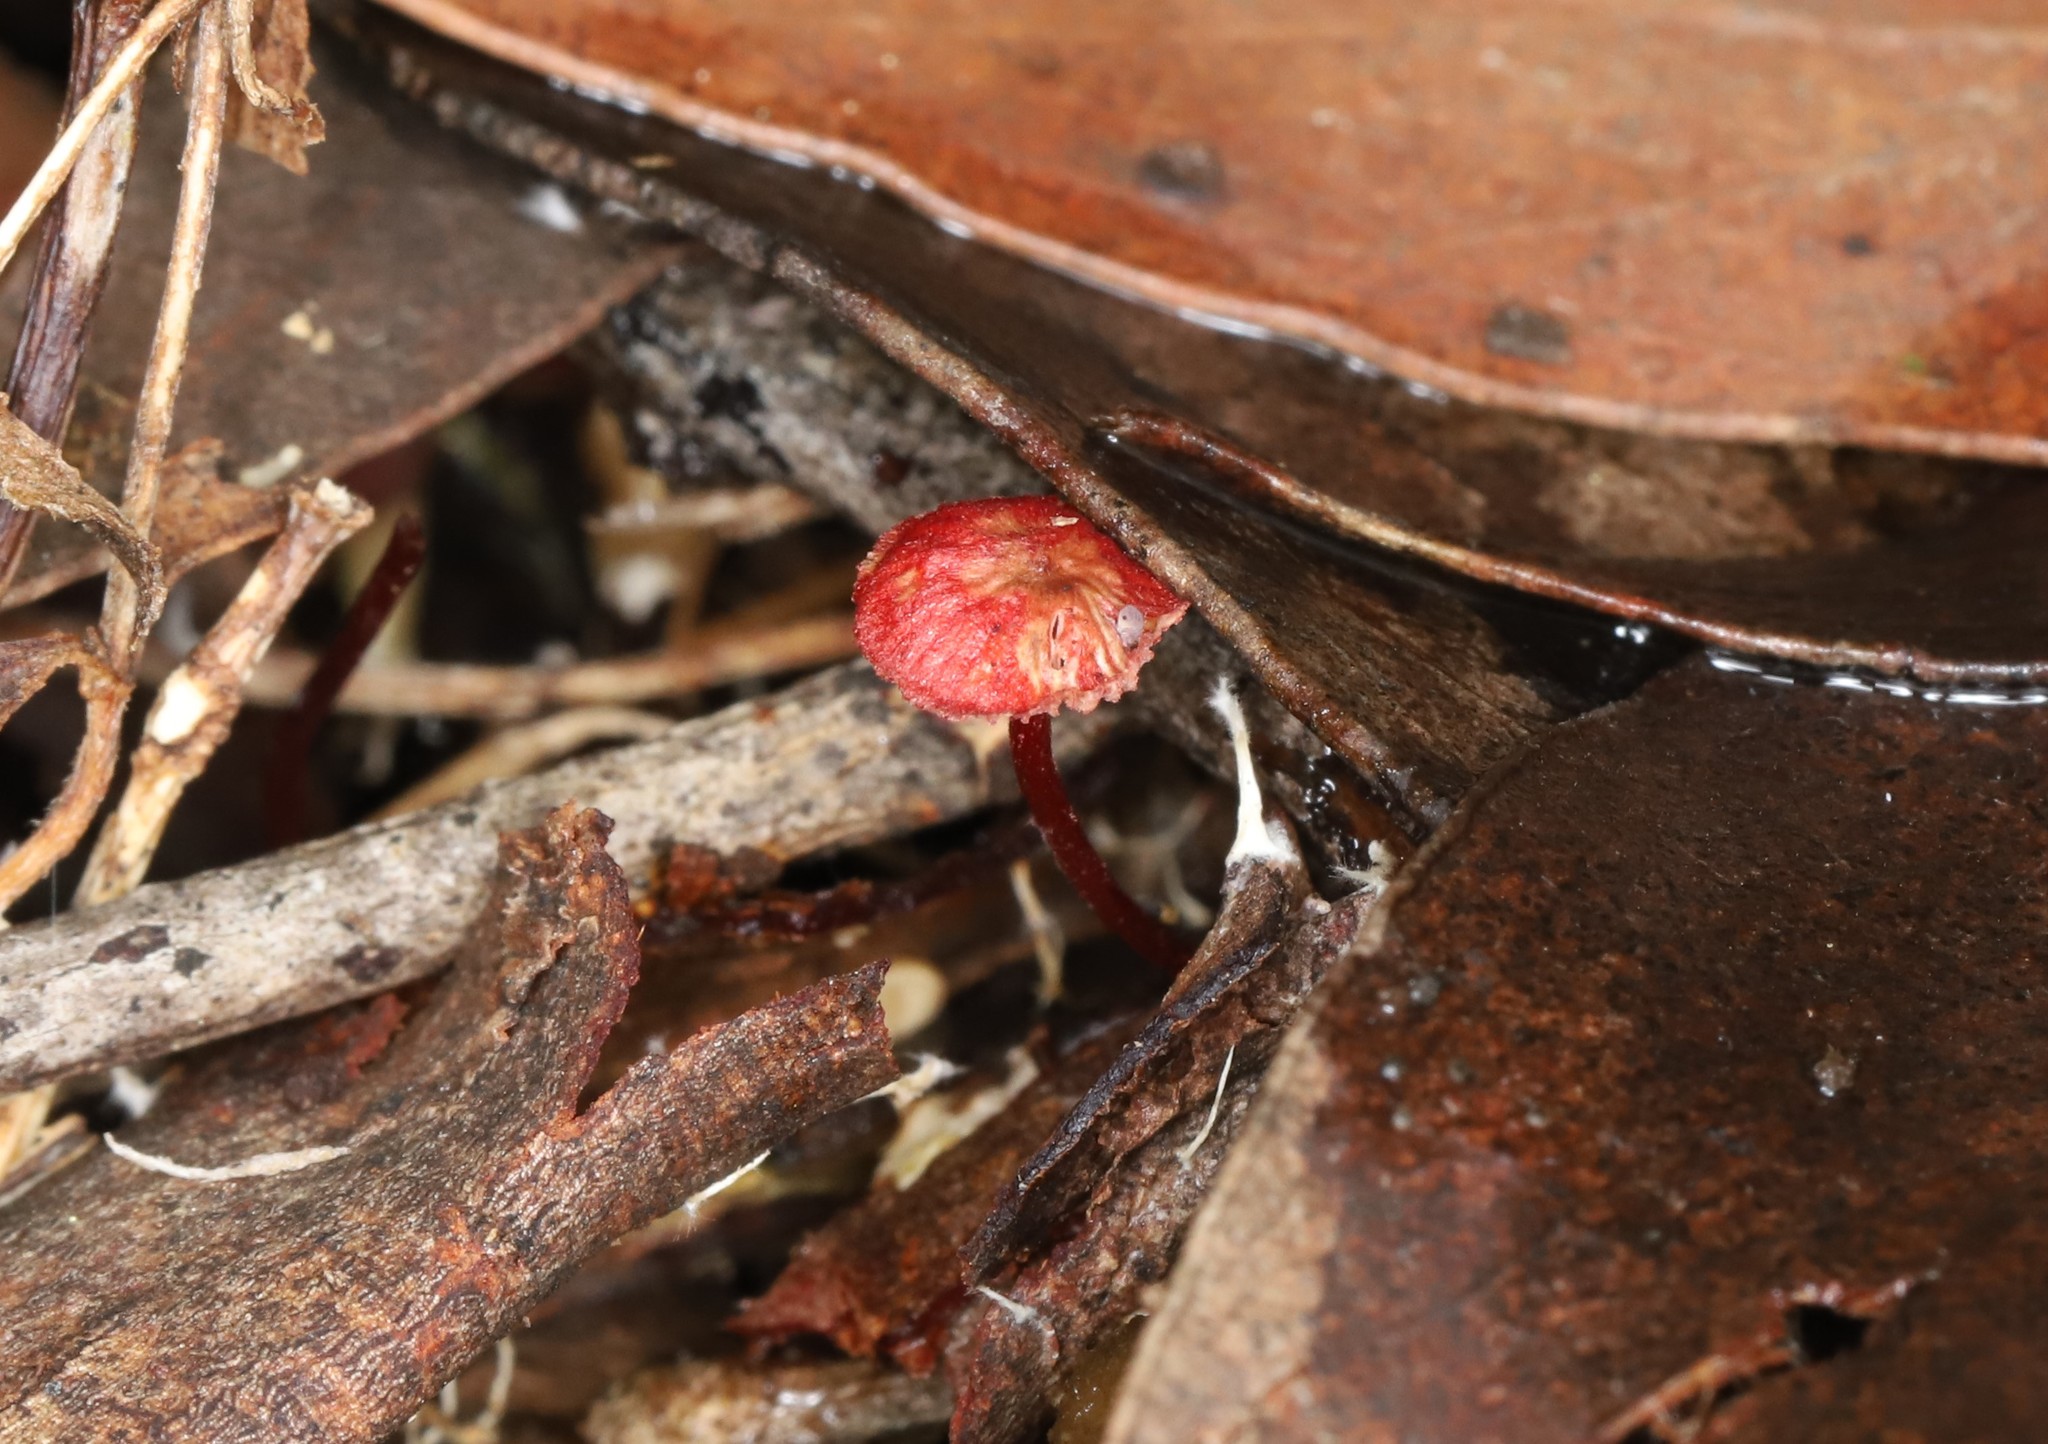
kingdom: Fungi
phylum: Basidiomycota
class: Agaricomycetes
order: Agaricales
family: Mycenaceae
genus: Cruentomycena
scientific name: Cruentomycena viscidocruenta
